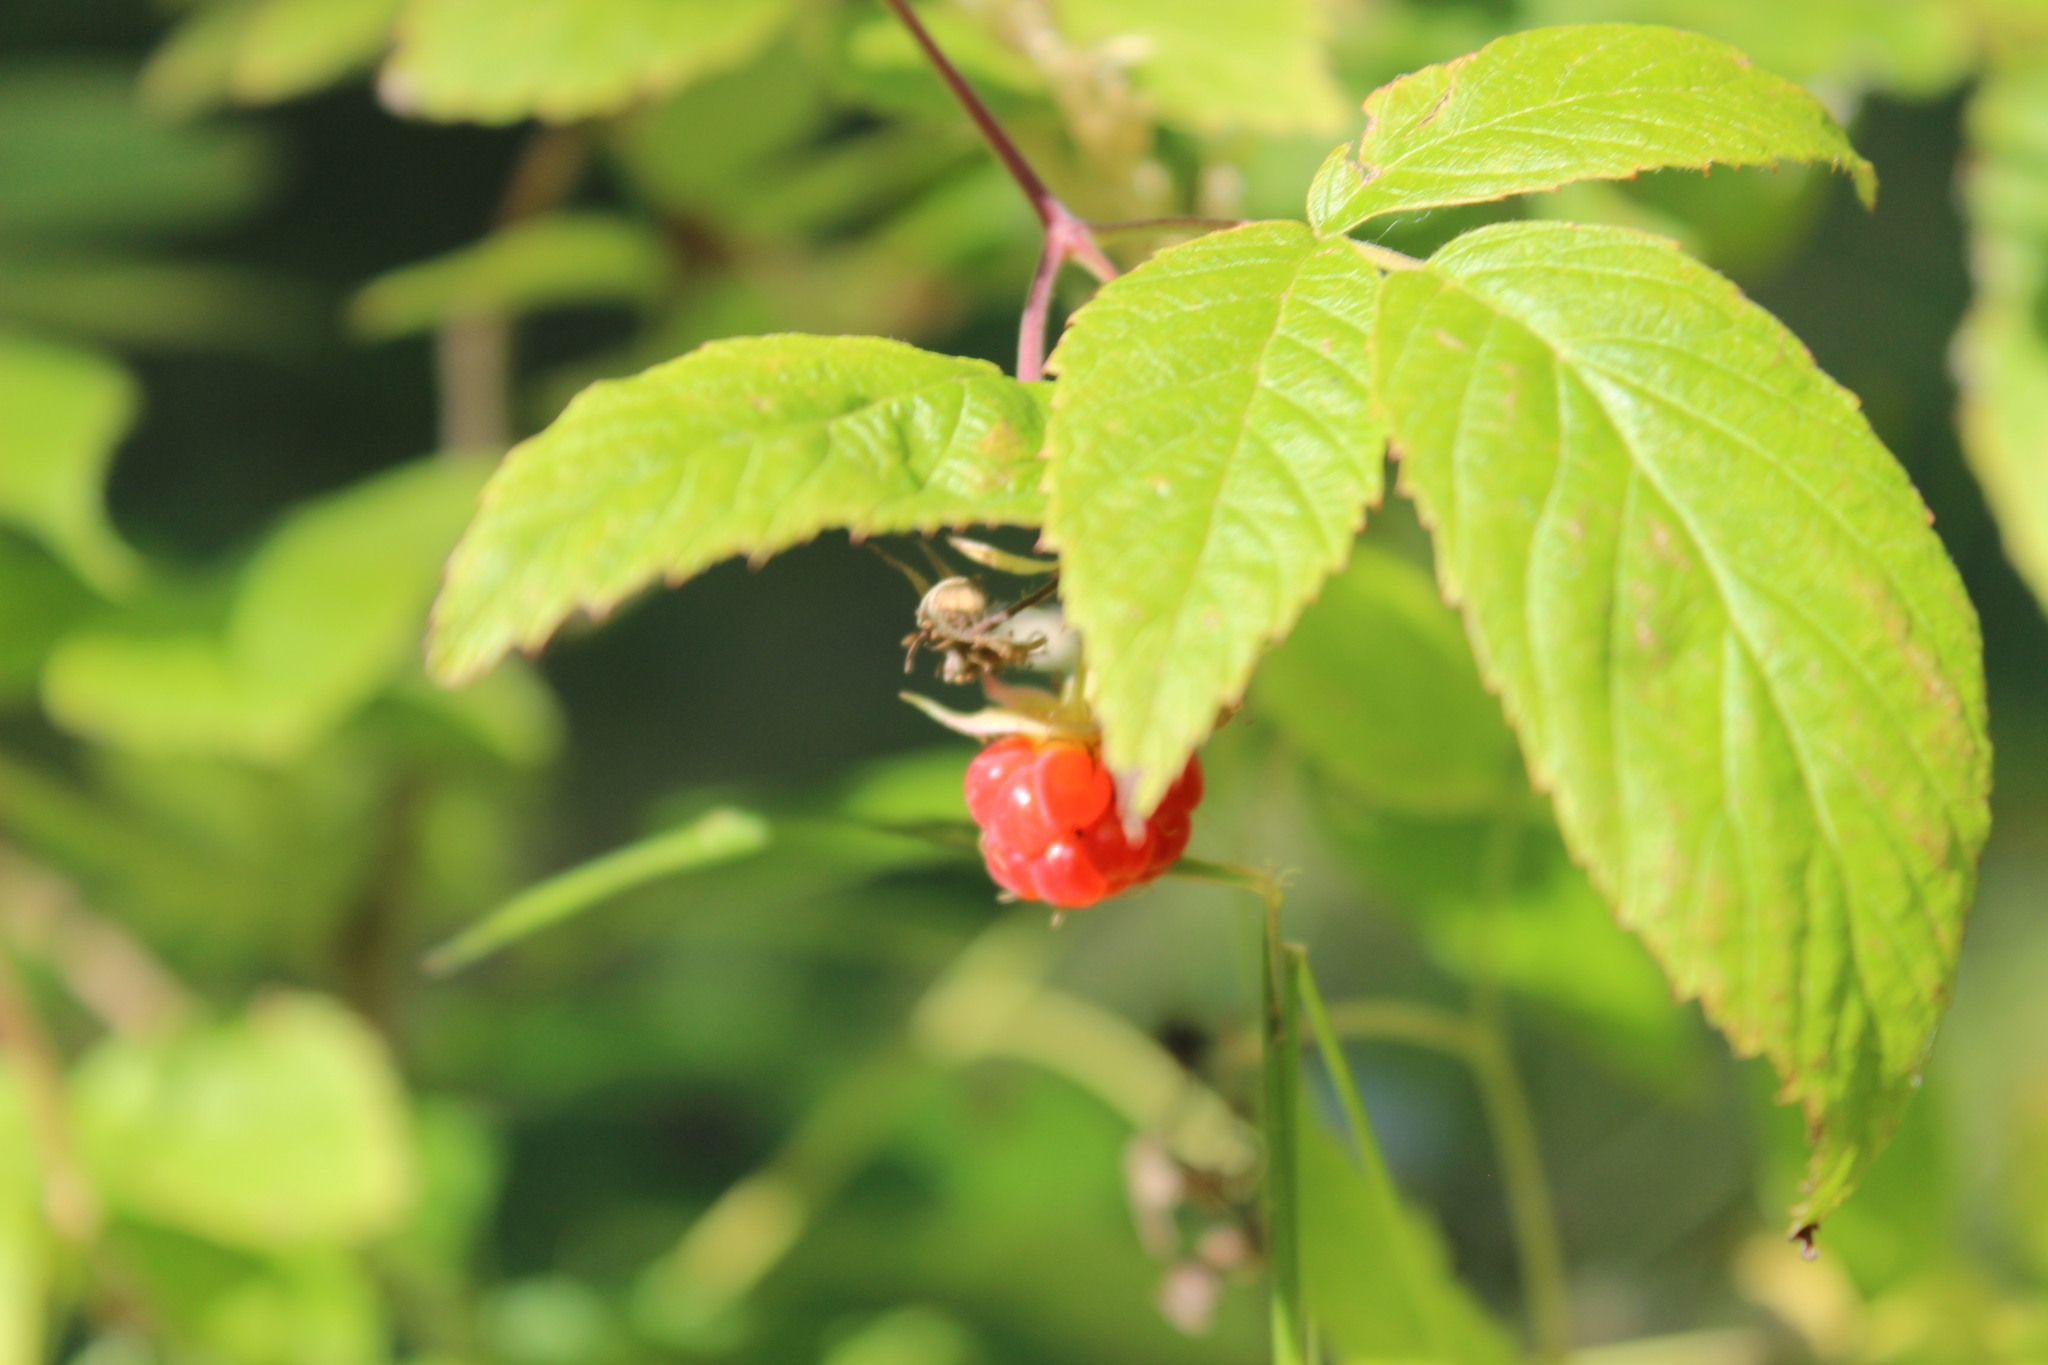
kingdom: Plantae
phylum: Tracheophyta
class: Magnoliopsida
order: Rosales
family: Rosaceae
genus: Rubus
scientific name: Rubus idaeus
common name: Raspberry
